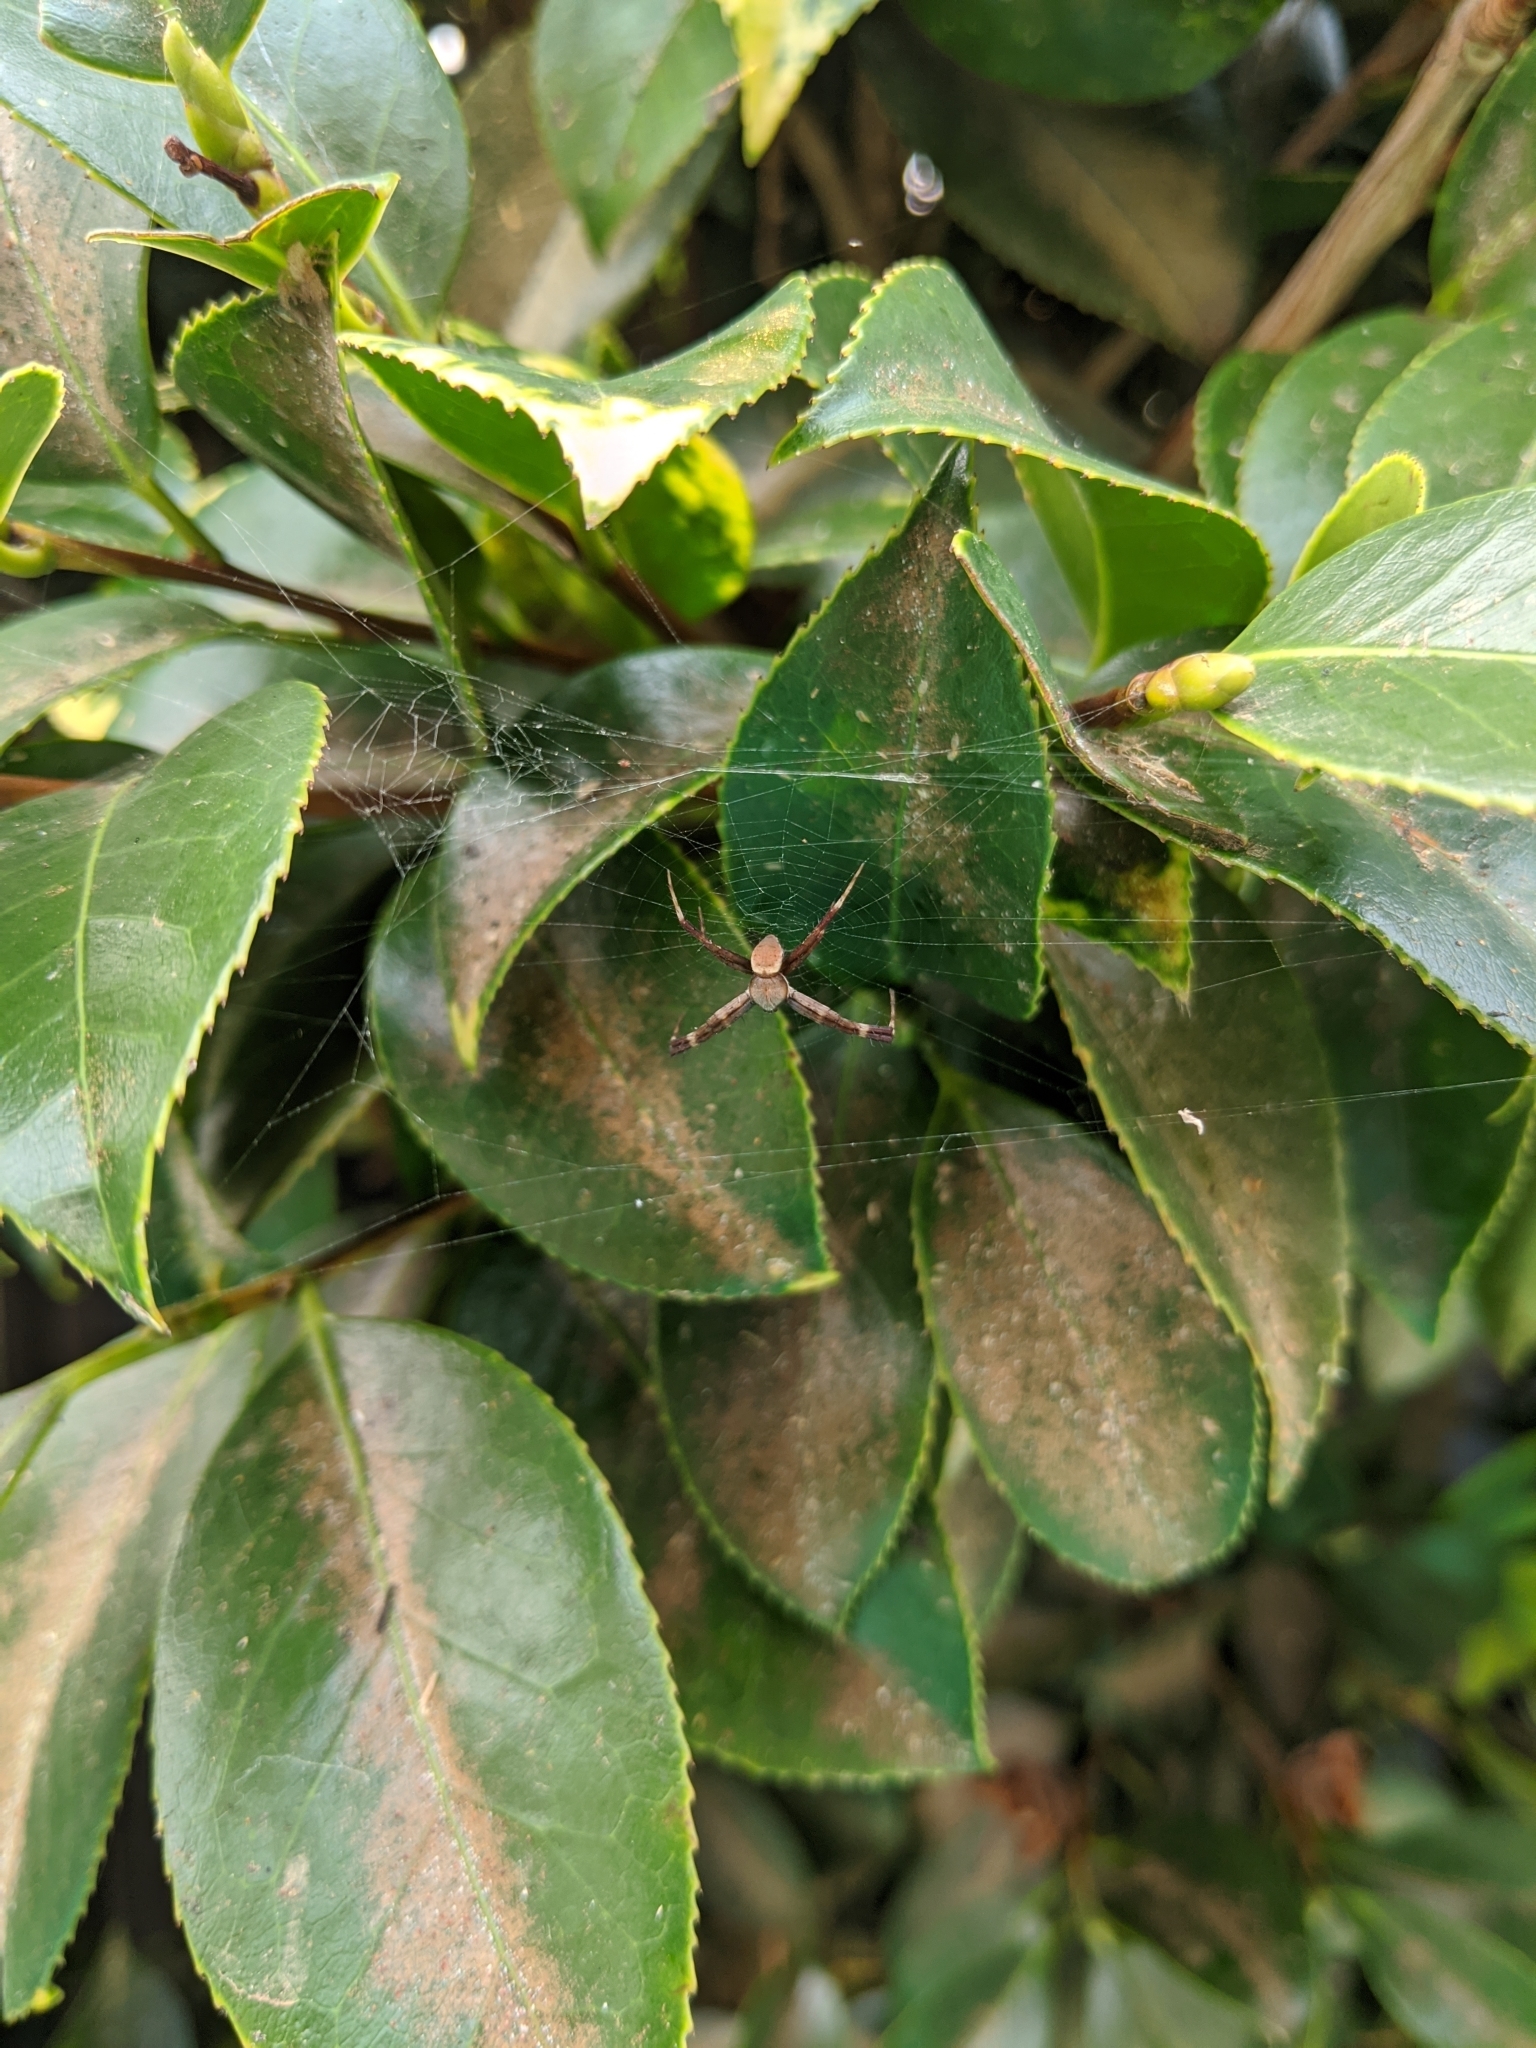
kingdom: Animalia
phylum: Arthropoda
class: Arachnida
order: Araneae
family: Araneidae
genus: Argiope
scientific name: Argiope keyserlingi
